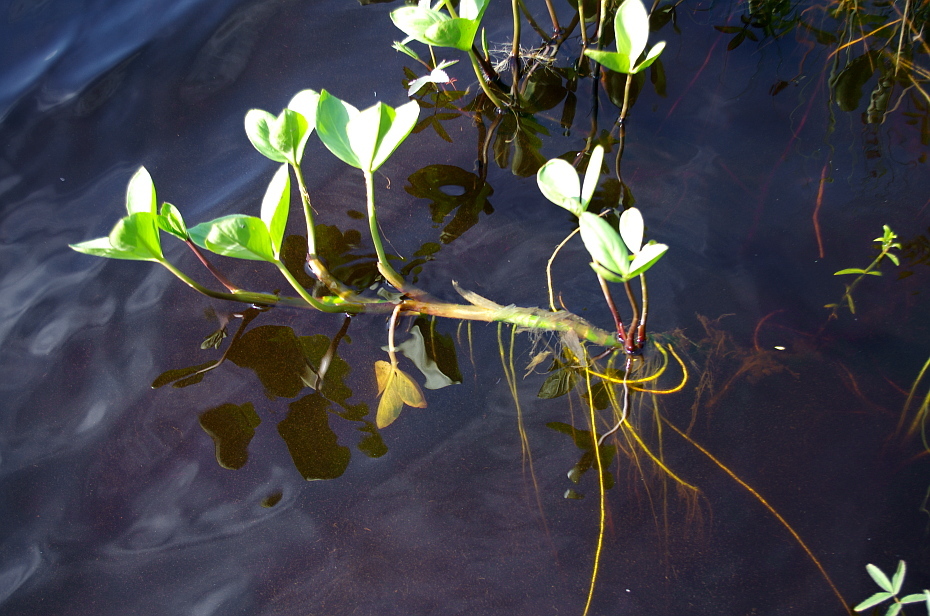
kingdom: Plantae
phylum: Tracheophyta
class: Magnoliopsida
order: Asterales
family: Menyanthaceae
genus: Menyanthes
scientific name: Menyanthes trifoliata
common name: Bogbean
